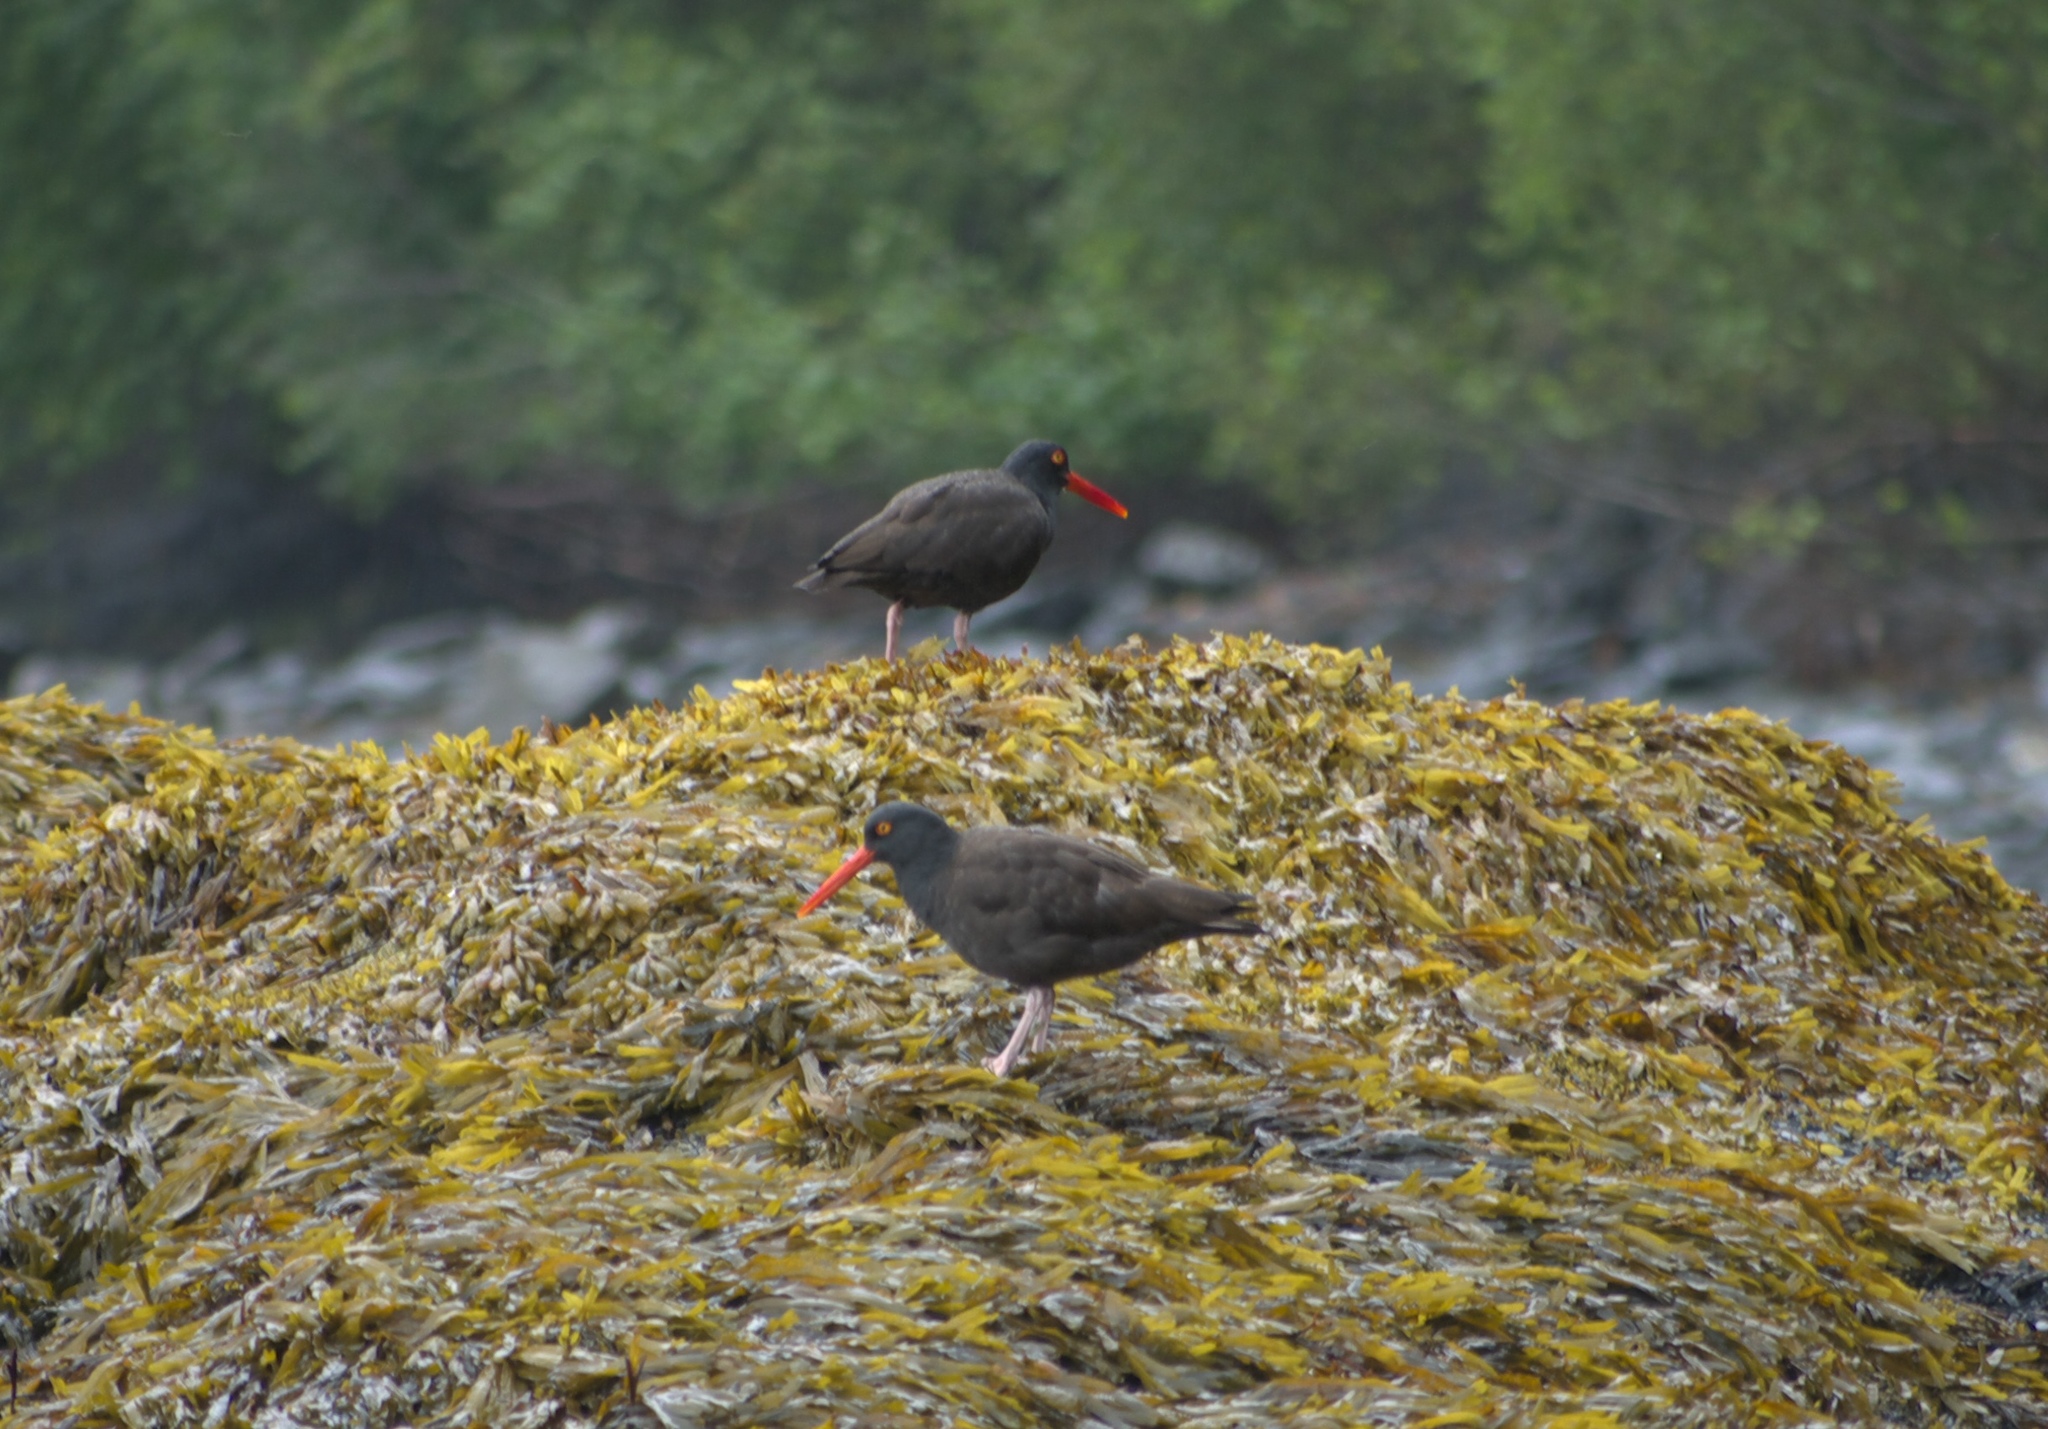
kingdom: Animalia
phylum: Chordata
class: Aves
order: Charadriiformes
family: Haematopodidae
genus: Haematopus
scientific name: Haematopus bachmani
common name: Black oystercatcher
